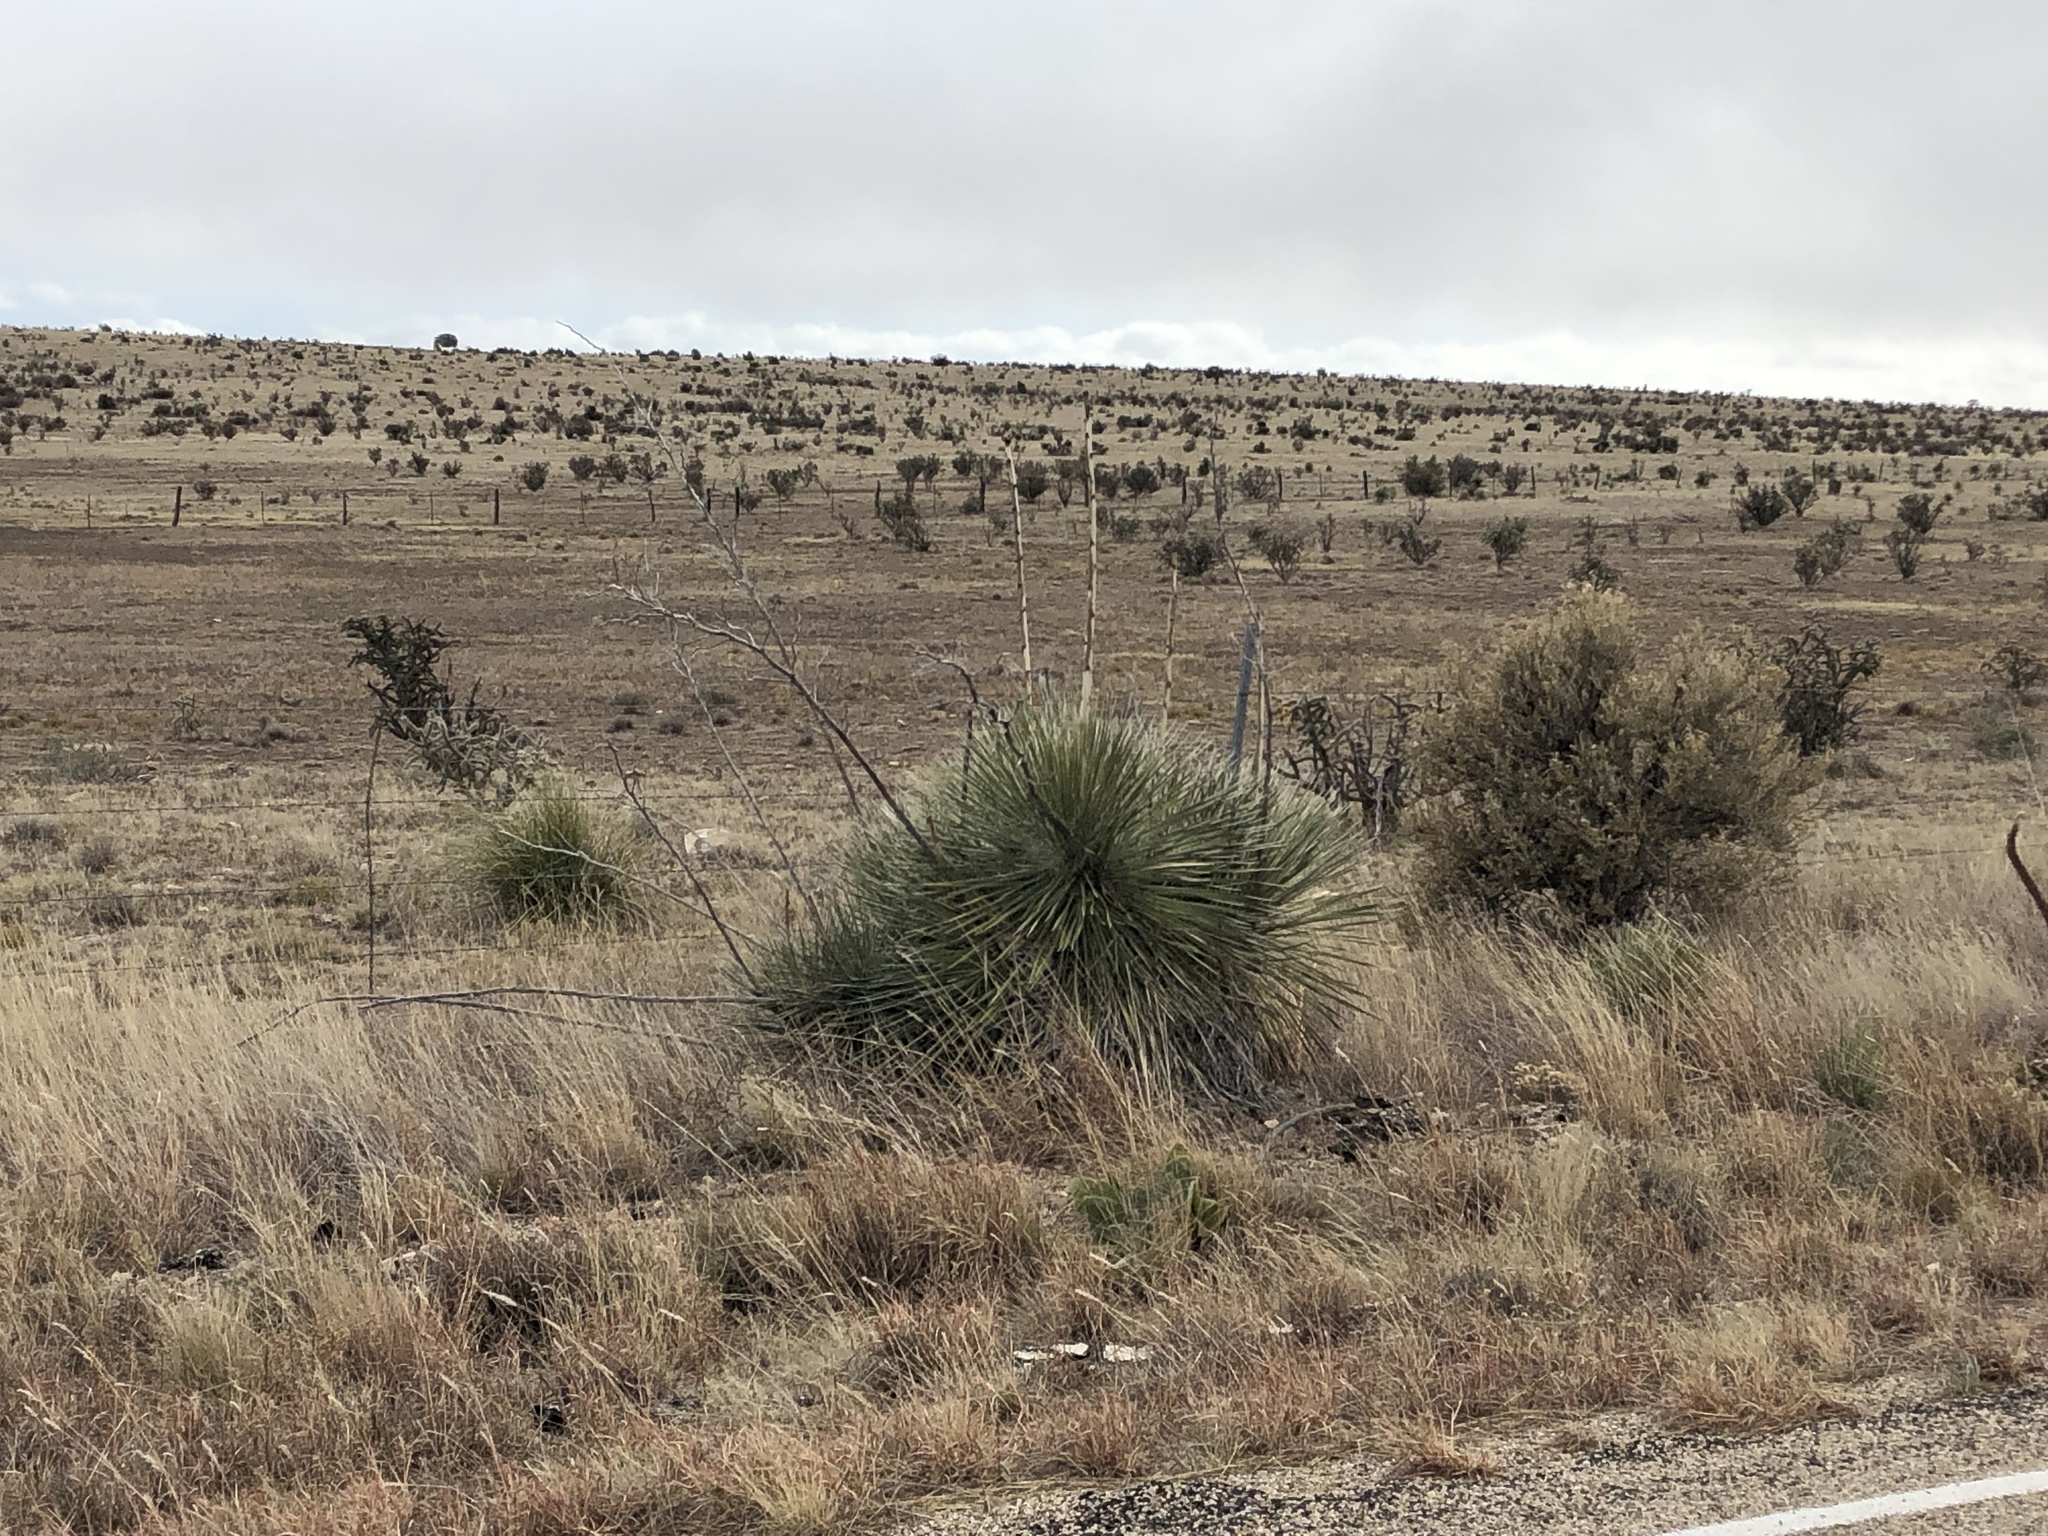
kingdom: Plantae
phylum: Tracheophyta
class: Liliopsida
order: Asparagales
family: Asparagaceae
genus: Yucca
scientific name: Yucca elata
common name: Palmella
